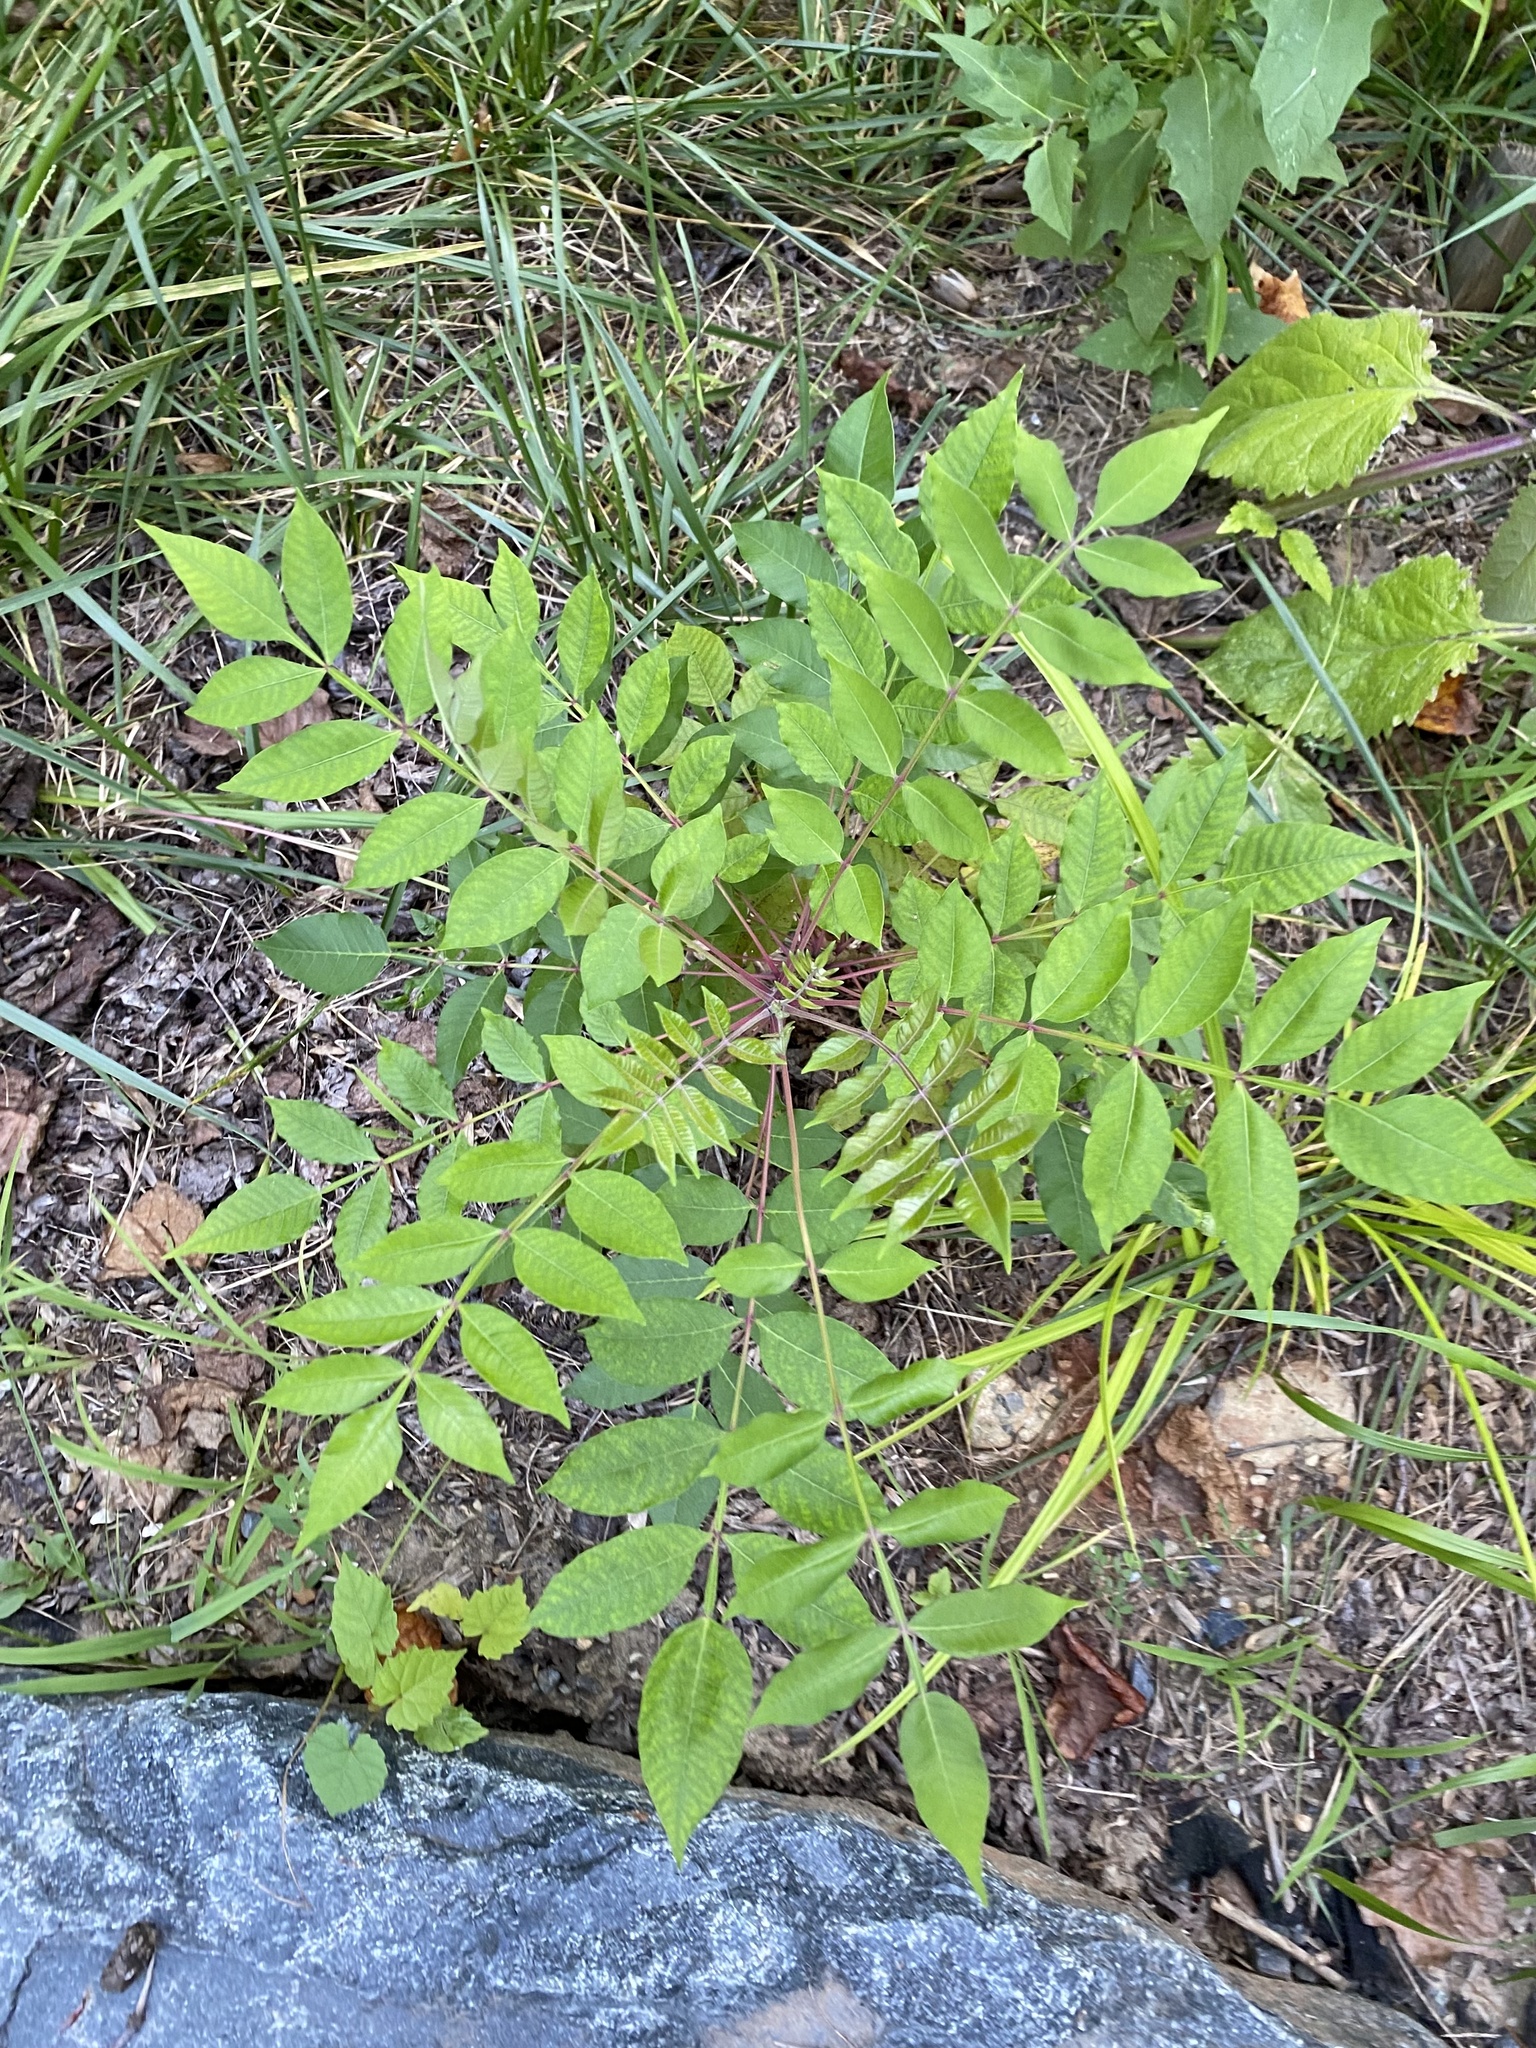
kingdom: Plantae
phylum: Tracheophyta
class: Magnoliopsida
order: Sapindales
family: Anacardiaceae
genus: Rhus
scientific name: Rhus copallina
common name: Shining sumac
